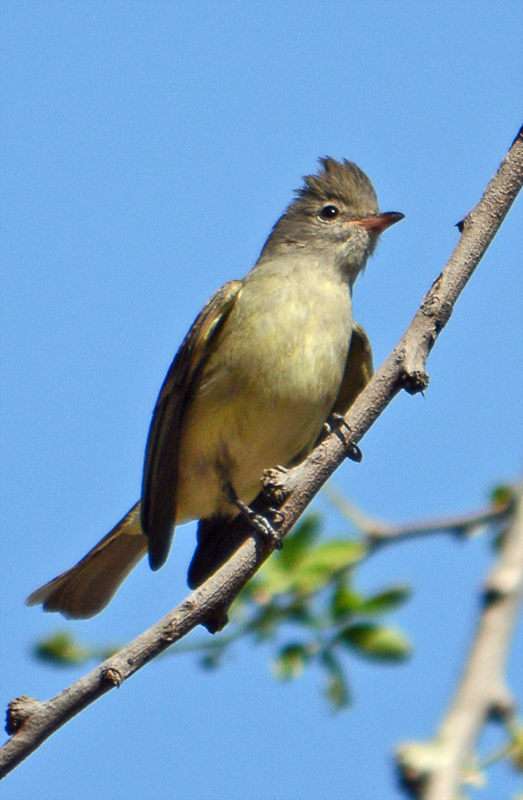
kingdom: Animalia
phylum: Chordata
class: Aves
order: Passeriformes
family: Tyrannidae
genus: Camptostoma
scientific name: Camptostoma imberbe
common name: Northern beardless-tyrannulet
